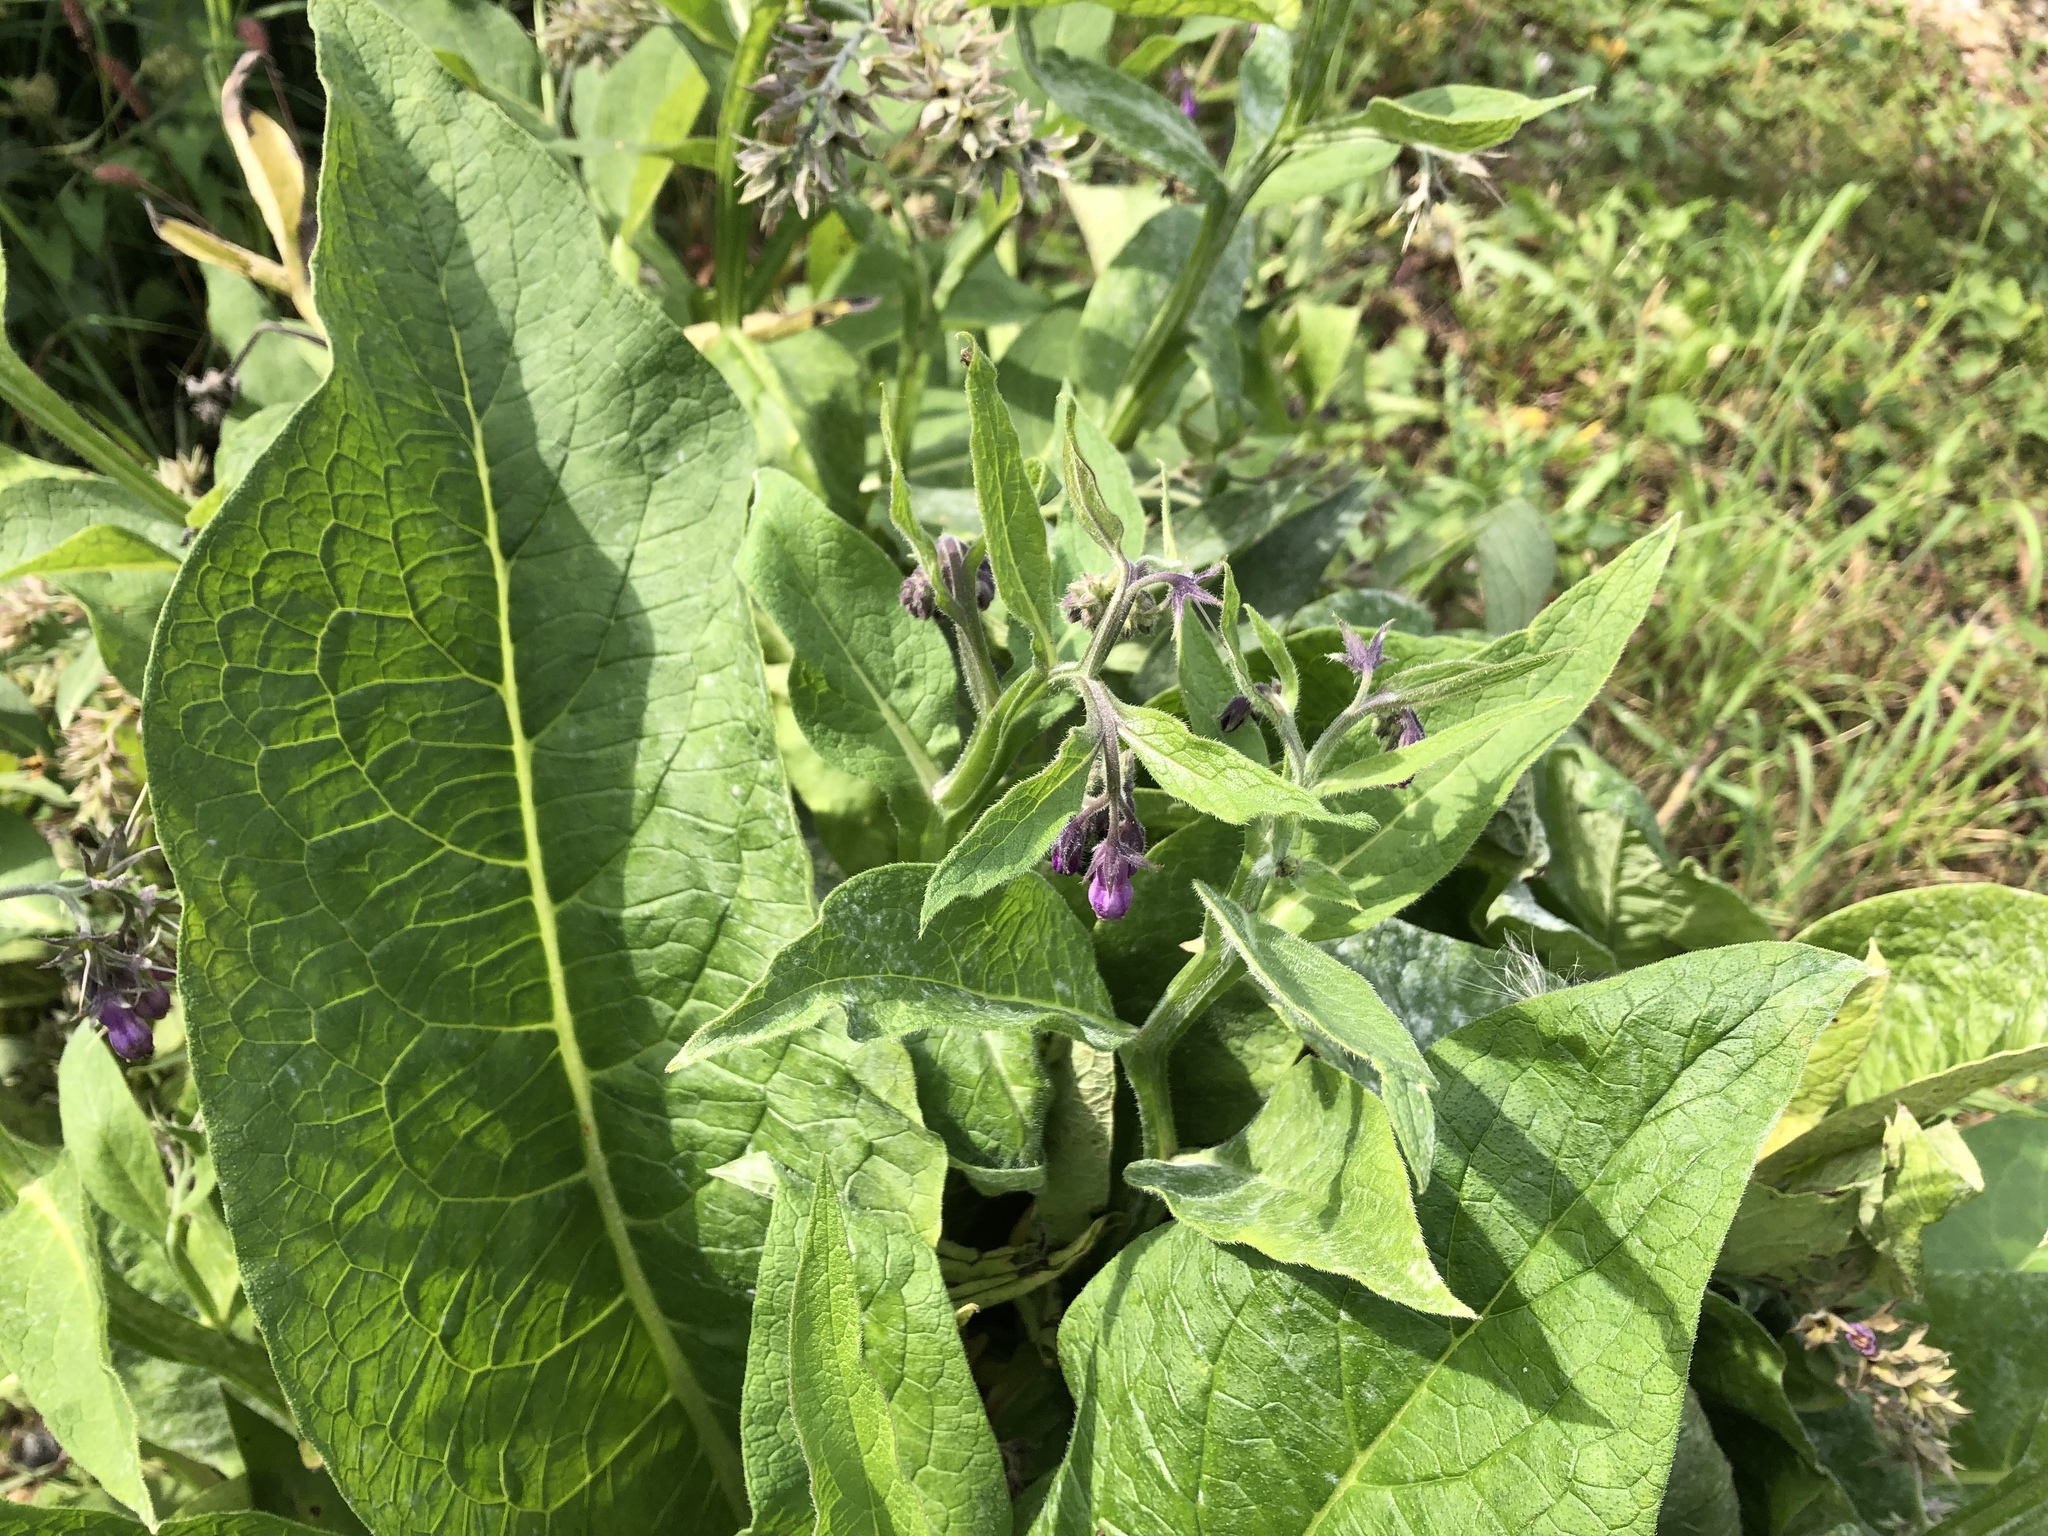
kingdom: Plantae
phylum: Tracheophyta
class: Magnoliopsida
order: Boraginales
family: Boraginaceae
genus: Symphytum
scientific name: Symphytum officinale
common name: Common comfrey
